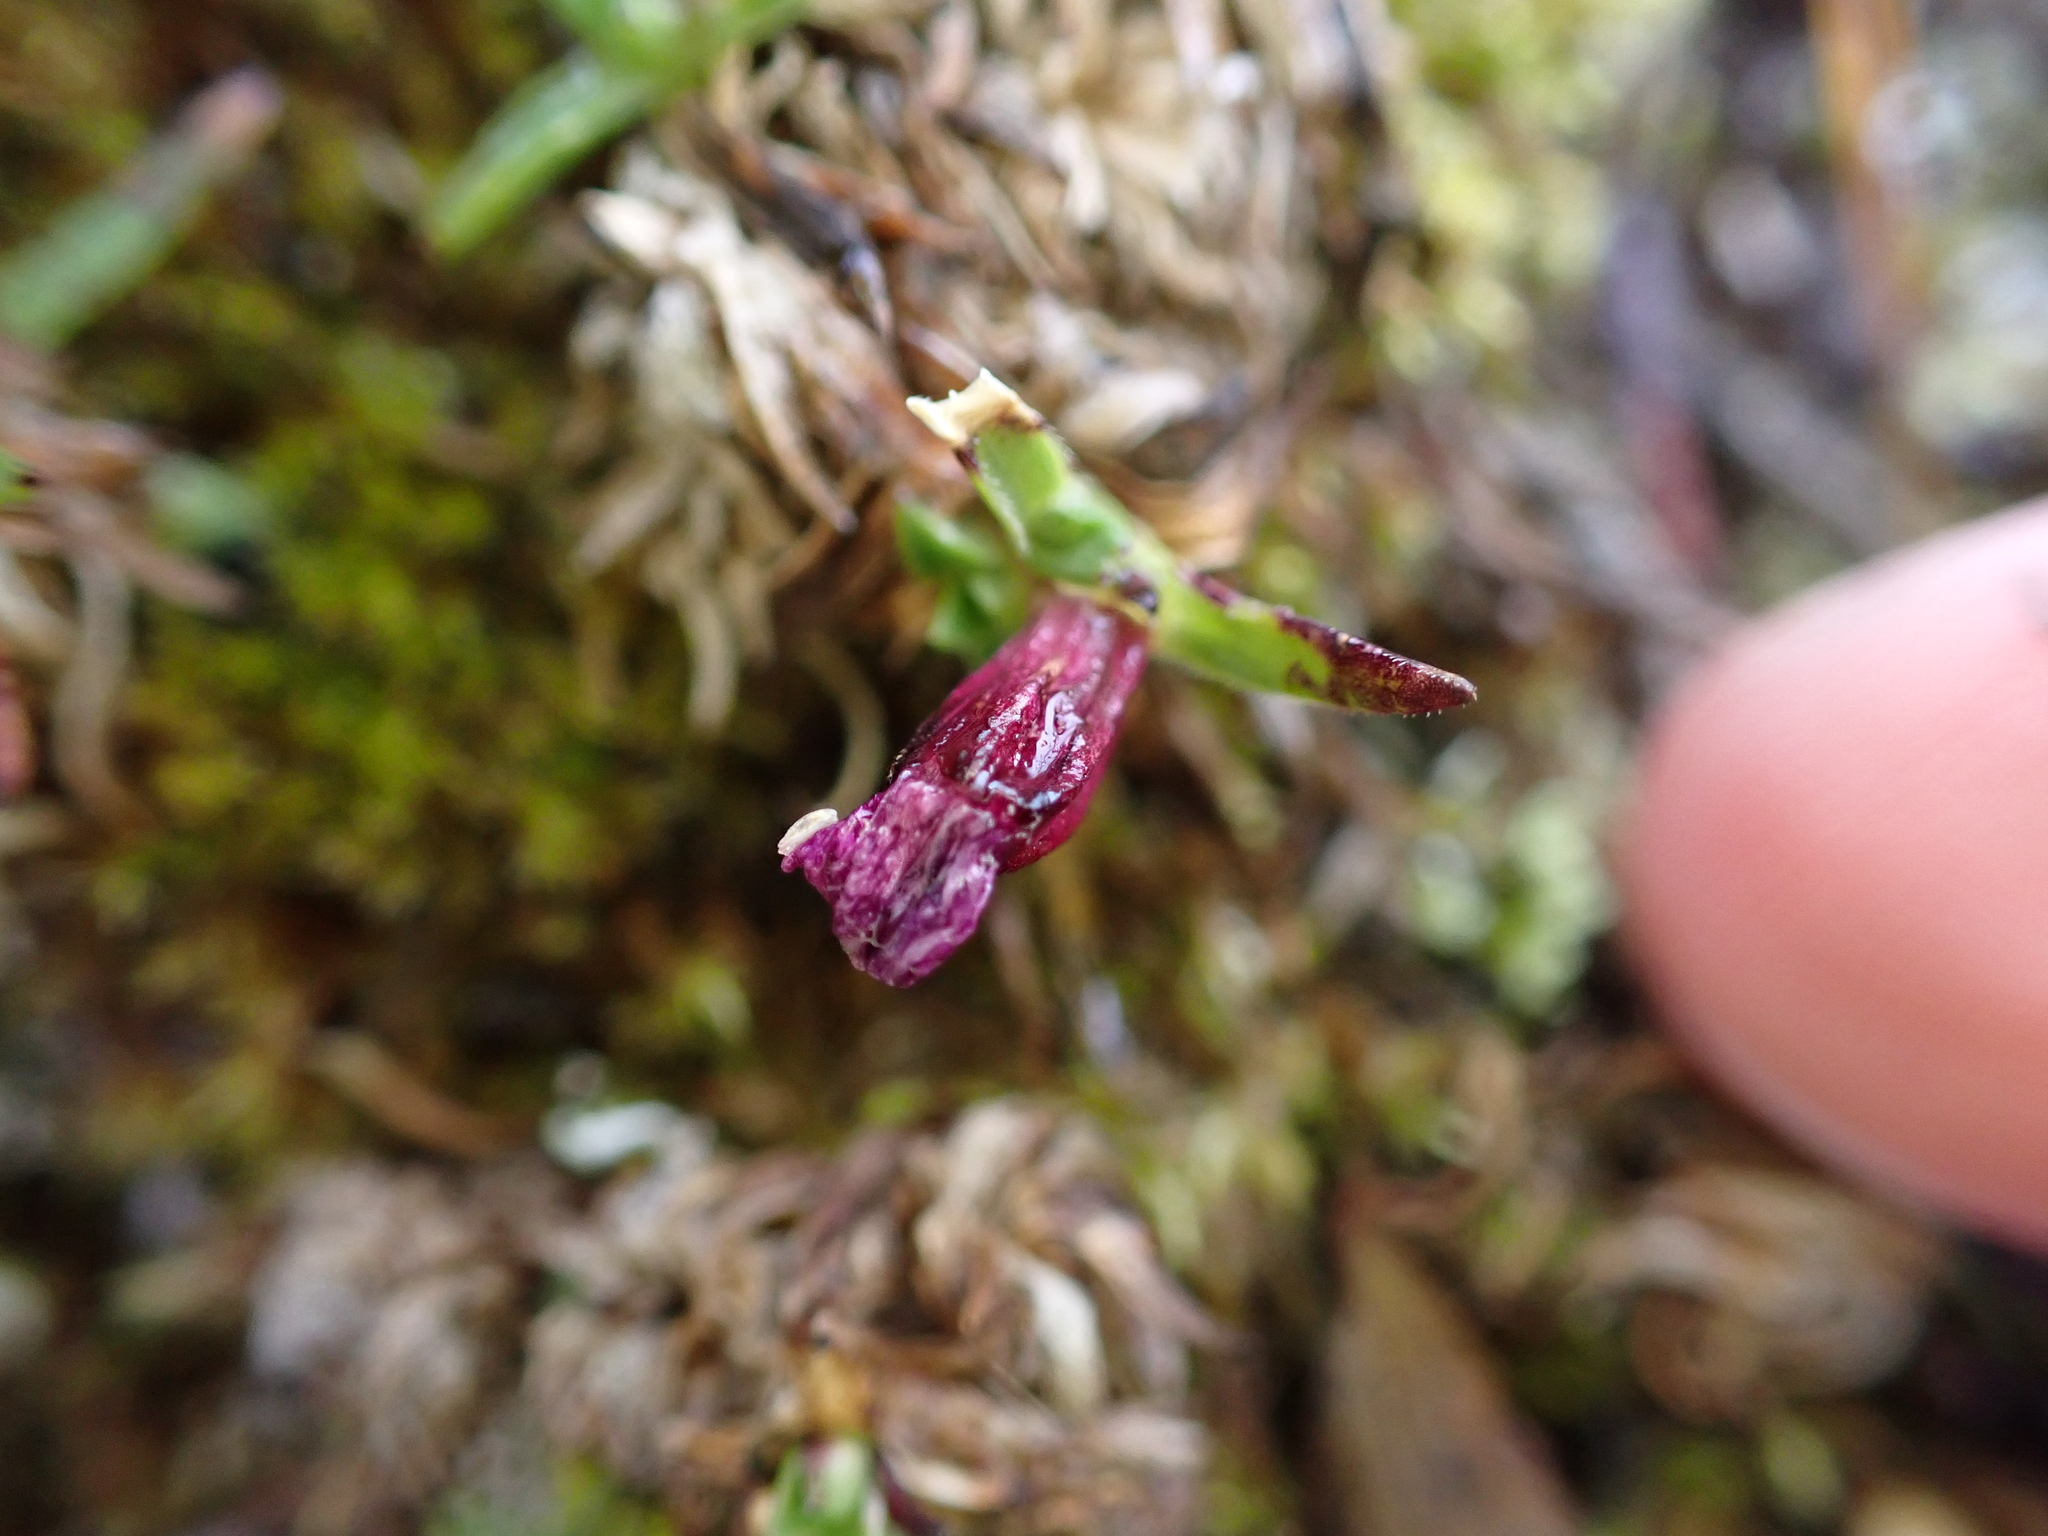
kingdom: Plantae
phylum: Tracheophyta
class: Magnoliopsida
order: Caryophyllales
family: Caryophyllaceae
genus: Silene
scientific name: Silene acaulis
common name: Moss campion
